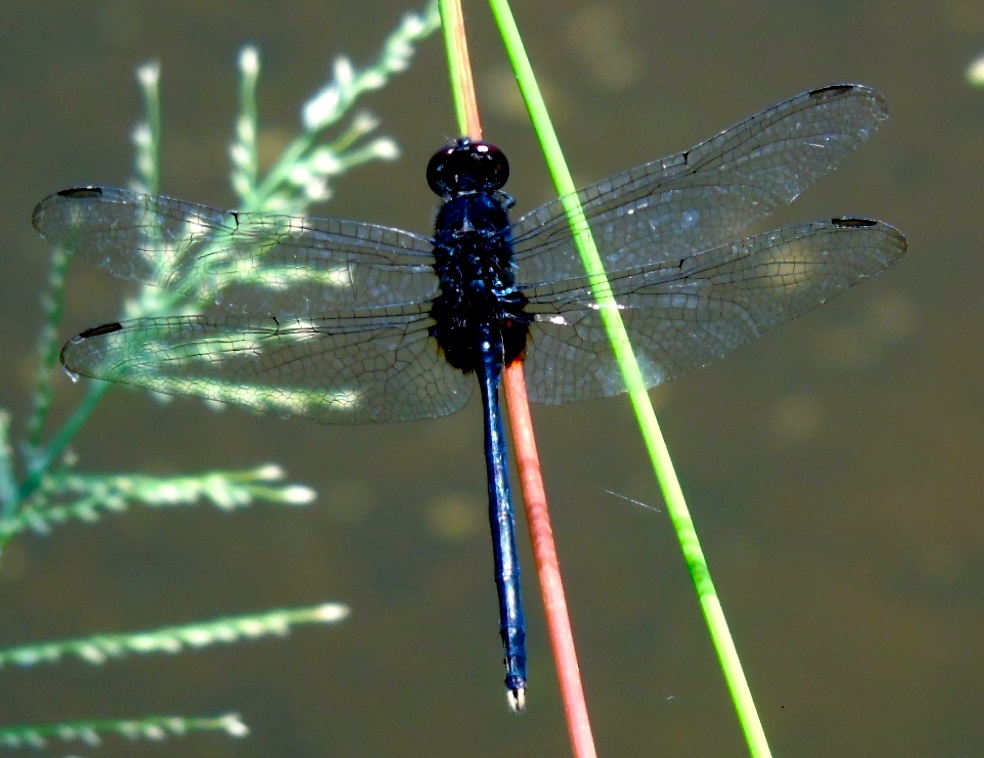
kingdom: Animalia
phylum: Arthropoda
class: Insecta
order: Odonata
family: Libellulidae
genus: Erythemis
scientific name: Erythemis plebeja
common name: Pin-tailed pondhawk
